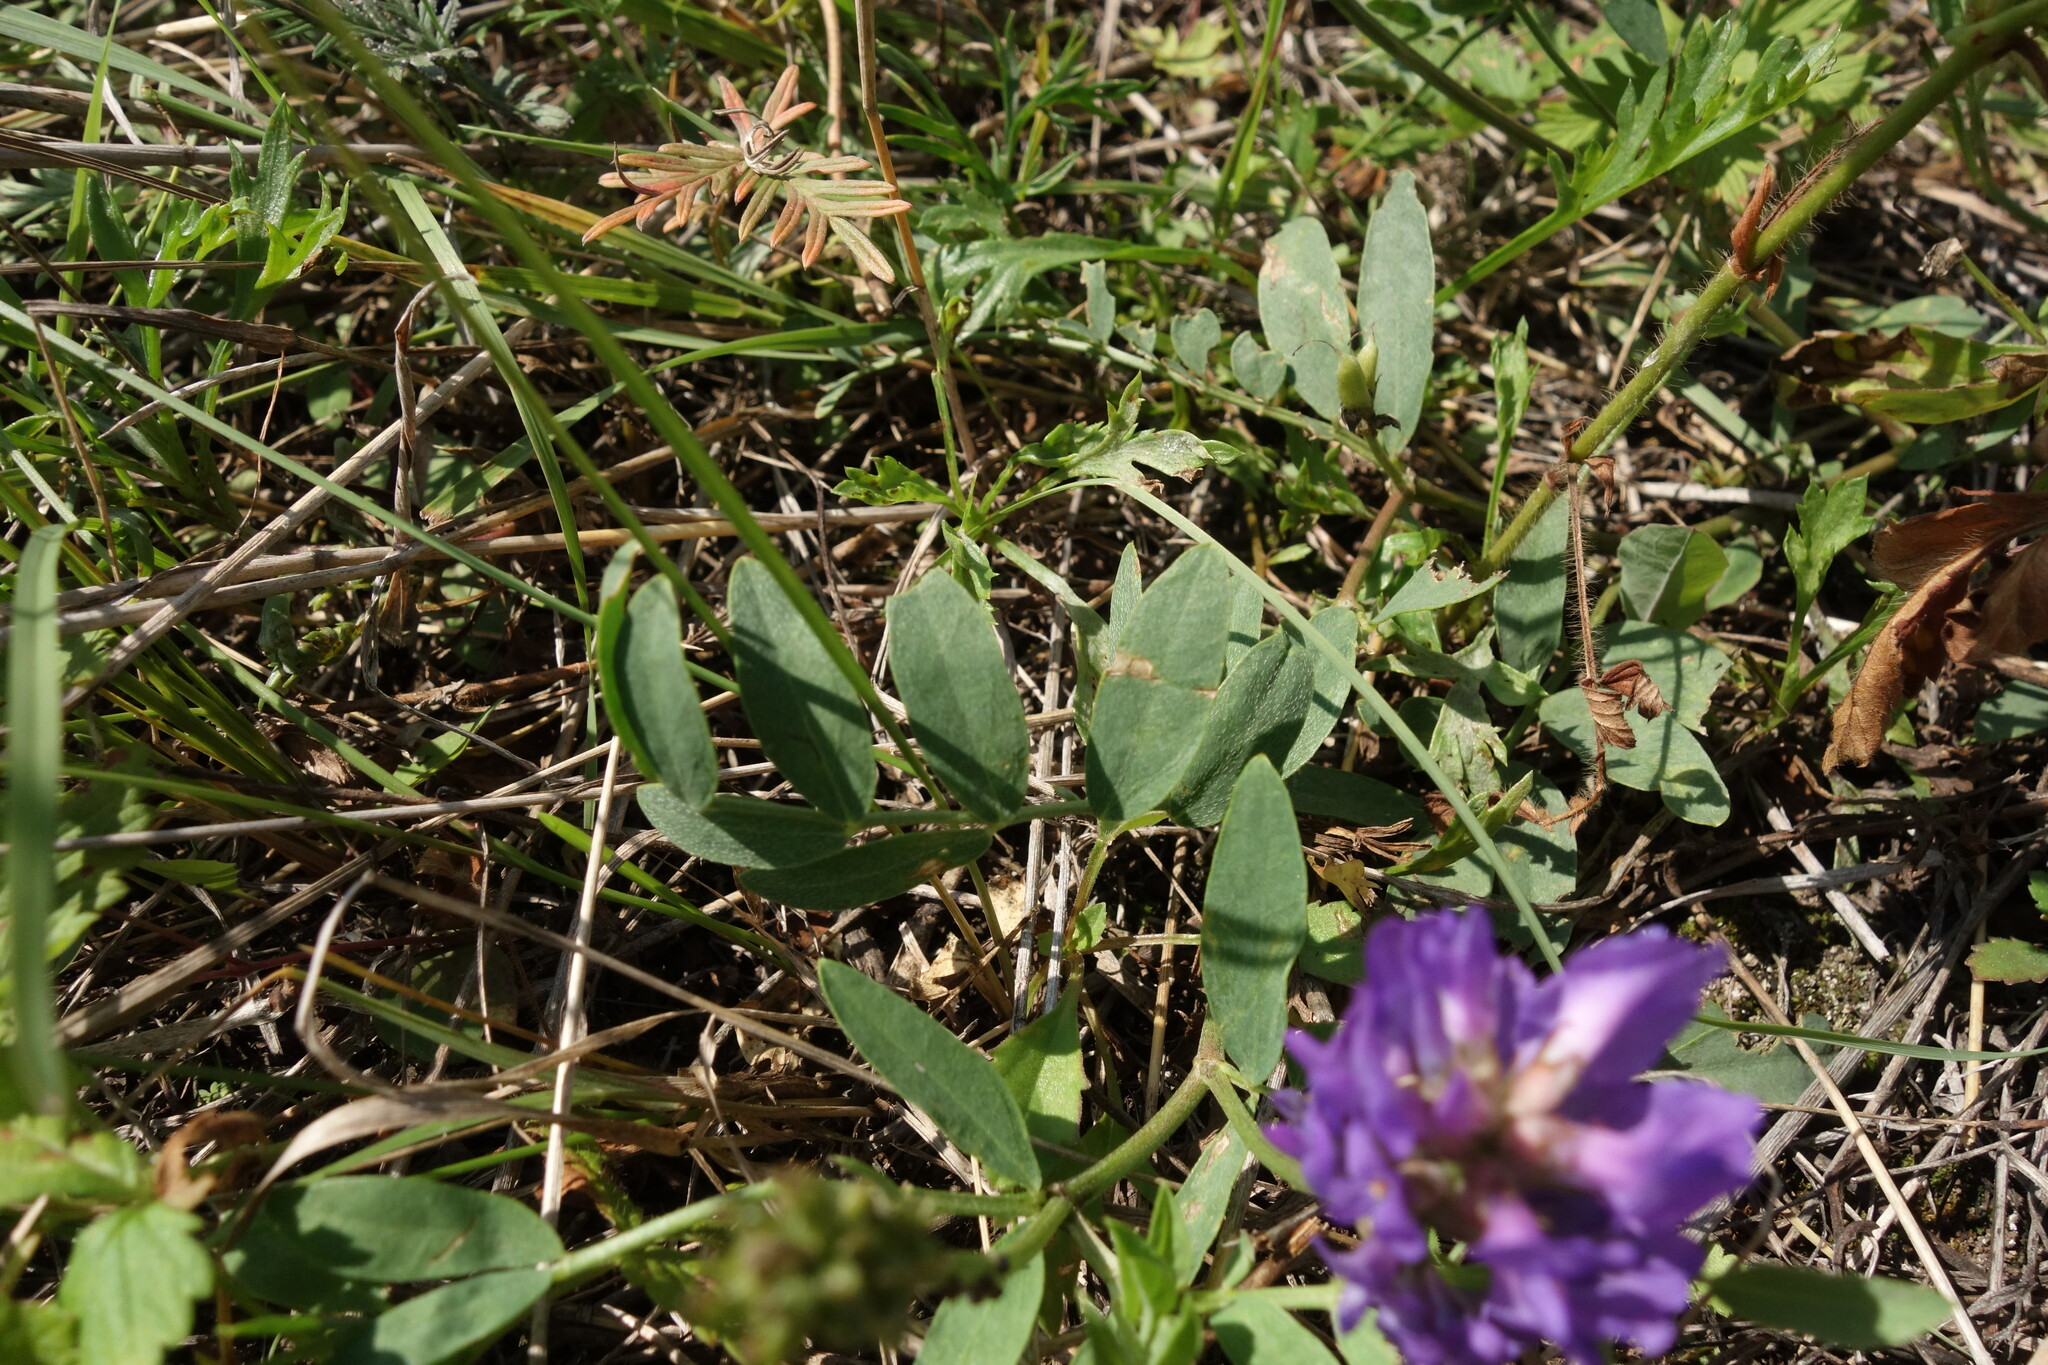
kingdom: Plantae
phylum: Tracheophyta
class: Magnoliopsida
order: Fabales
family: Fabaceae
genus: Astragalus
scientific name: Astragalus laxmannii
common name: Laxmann's milk-vetch
